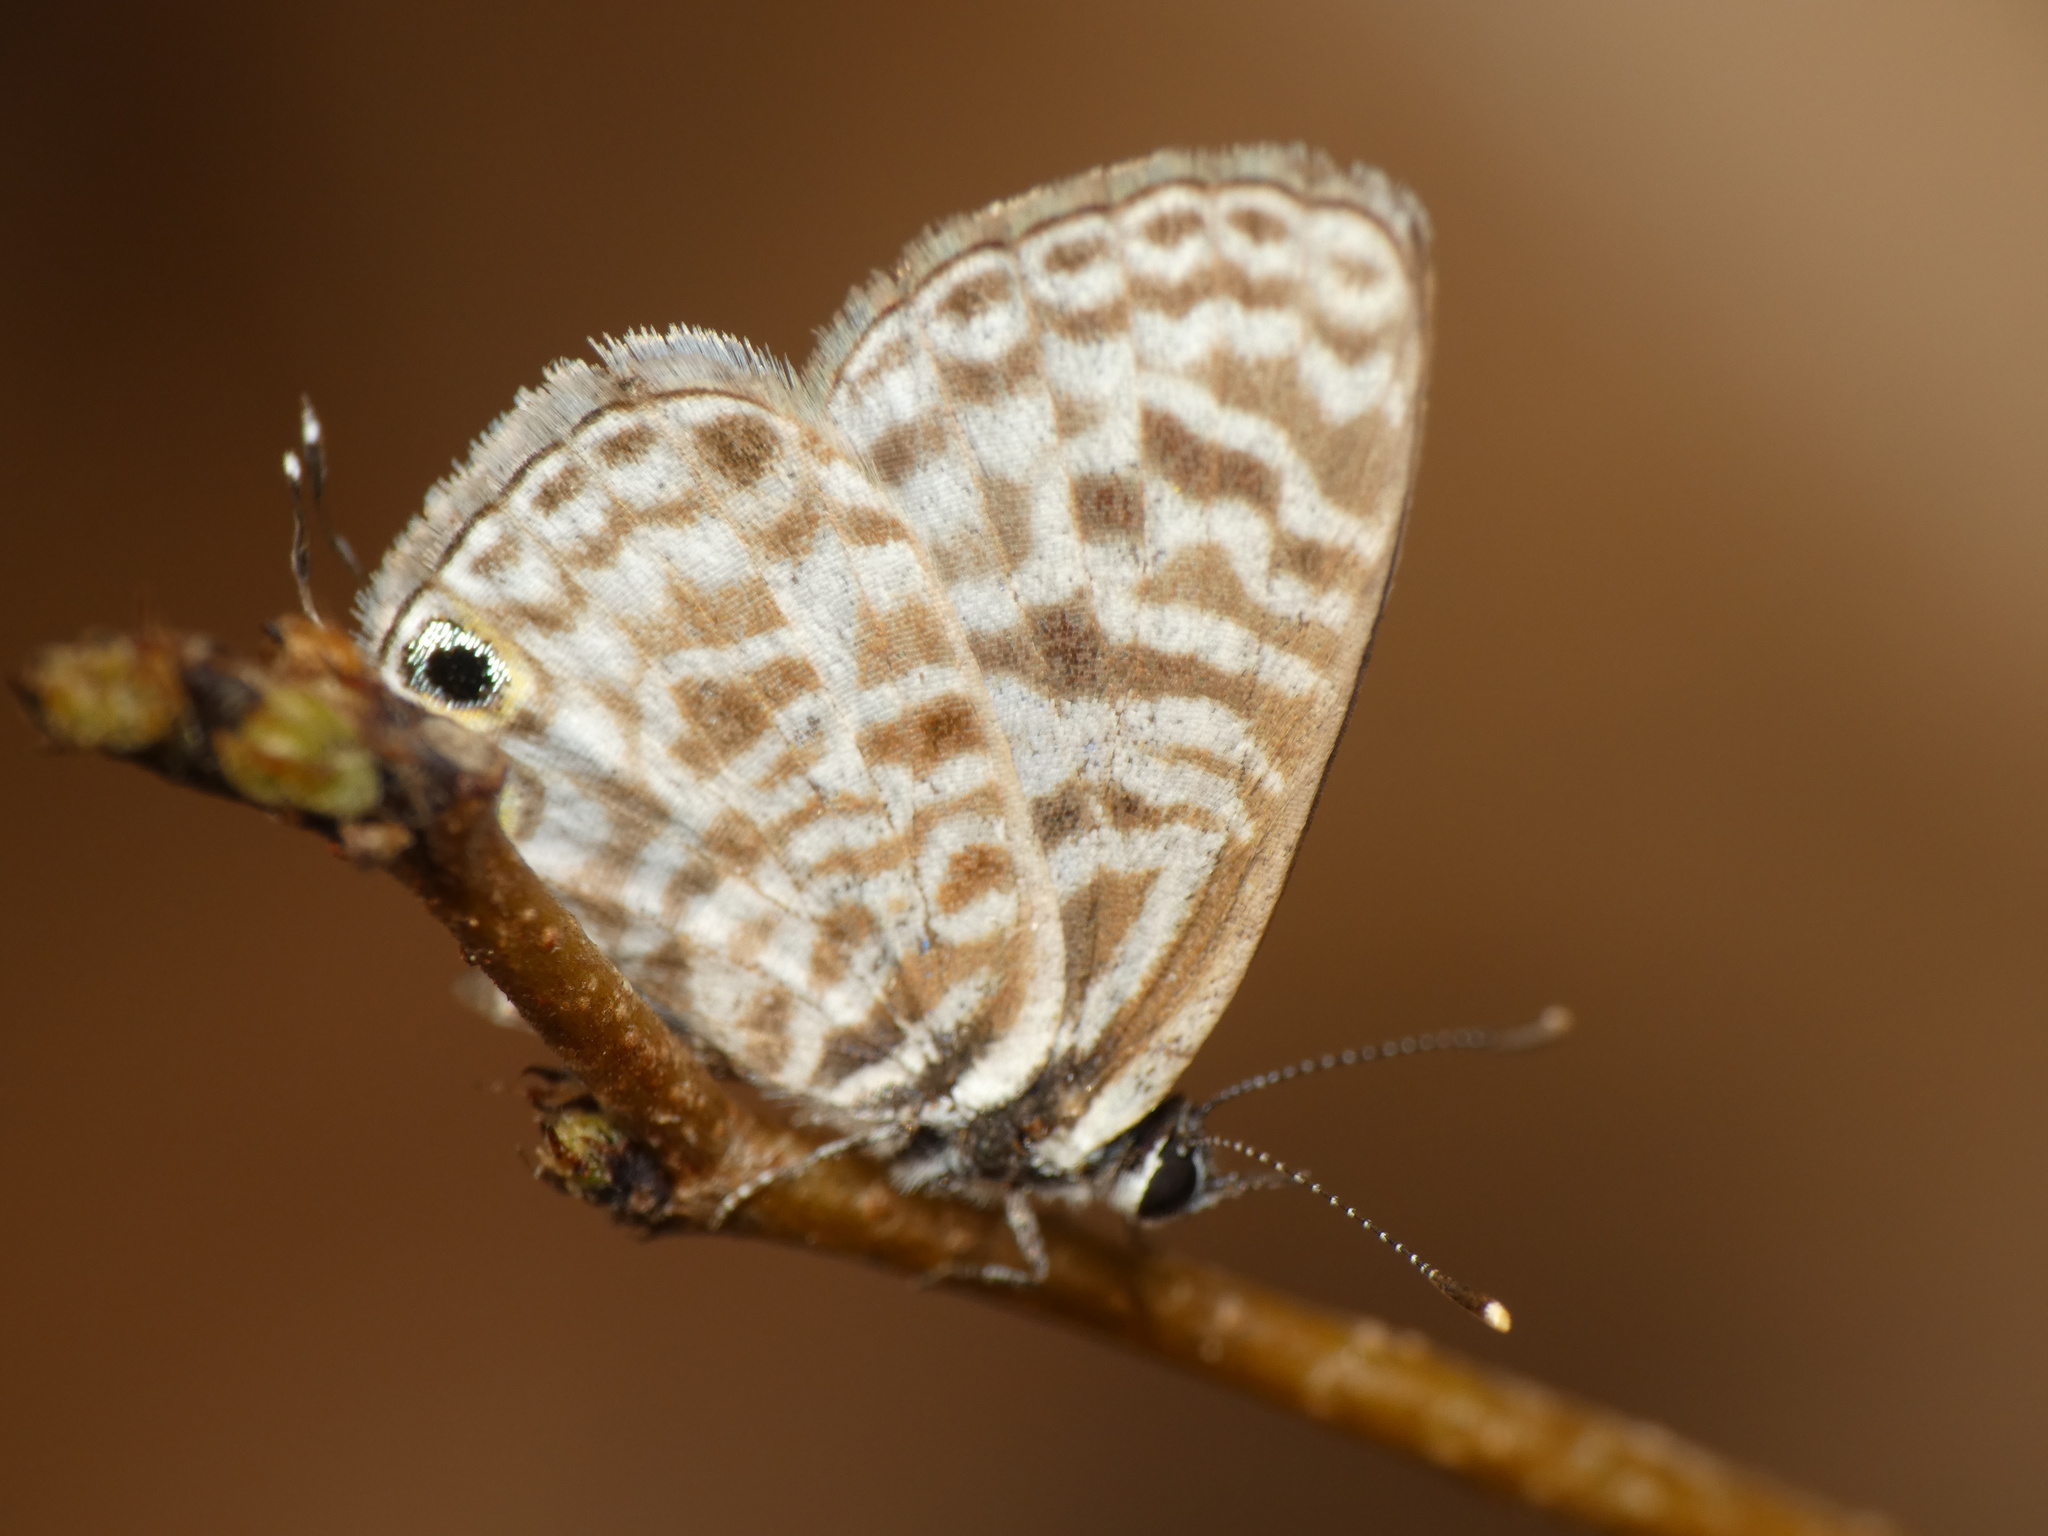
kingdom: Animalia
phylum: Arthropoda
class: Insecta
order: Lepidoptera
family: Lycaenidae
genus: Leptotes
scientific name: Leptotes
